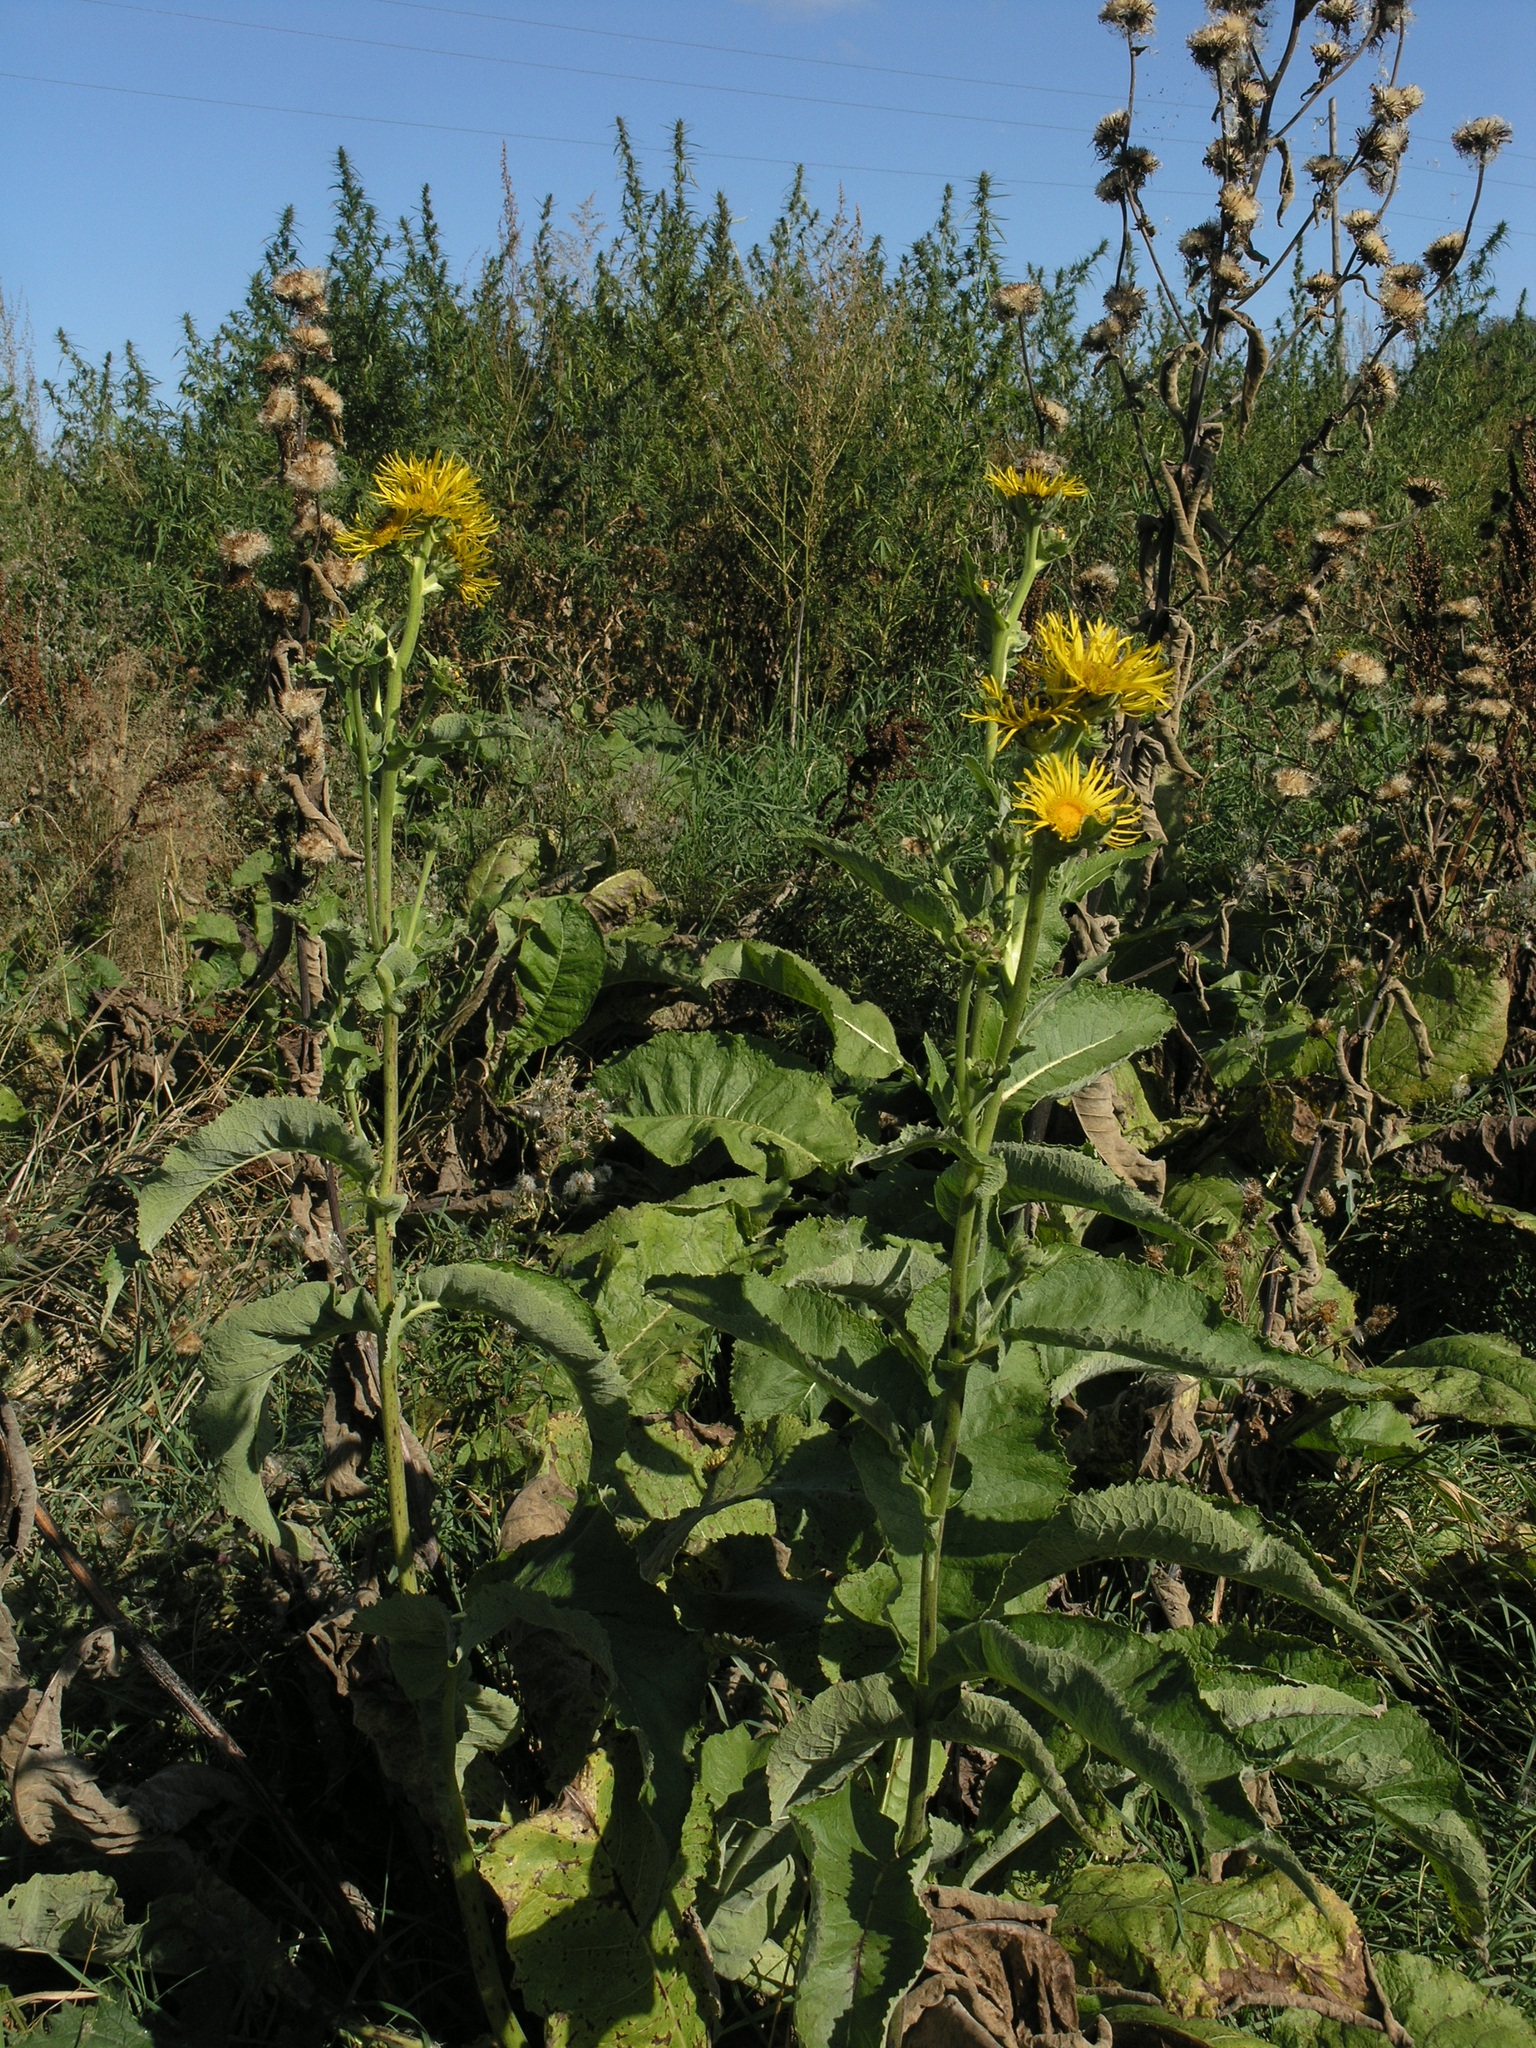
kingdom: Plantae
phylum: Tracheophyta
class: Magnoliopsida
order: Asterales
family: Asteraceae
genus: Inula
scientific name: Inula helenium
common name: Elecampane
